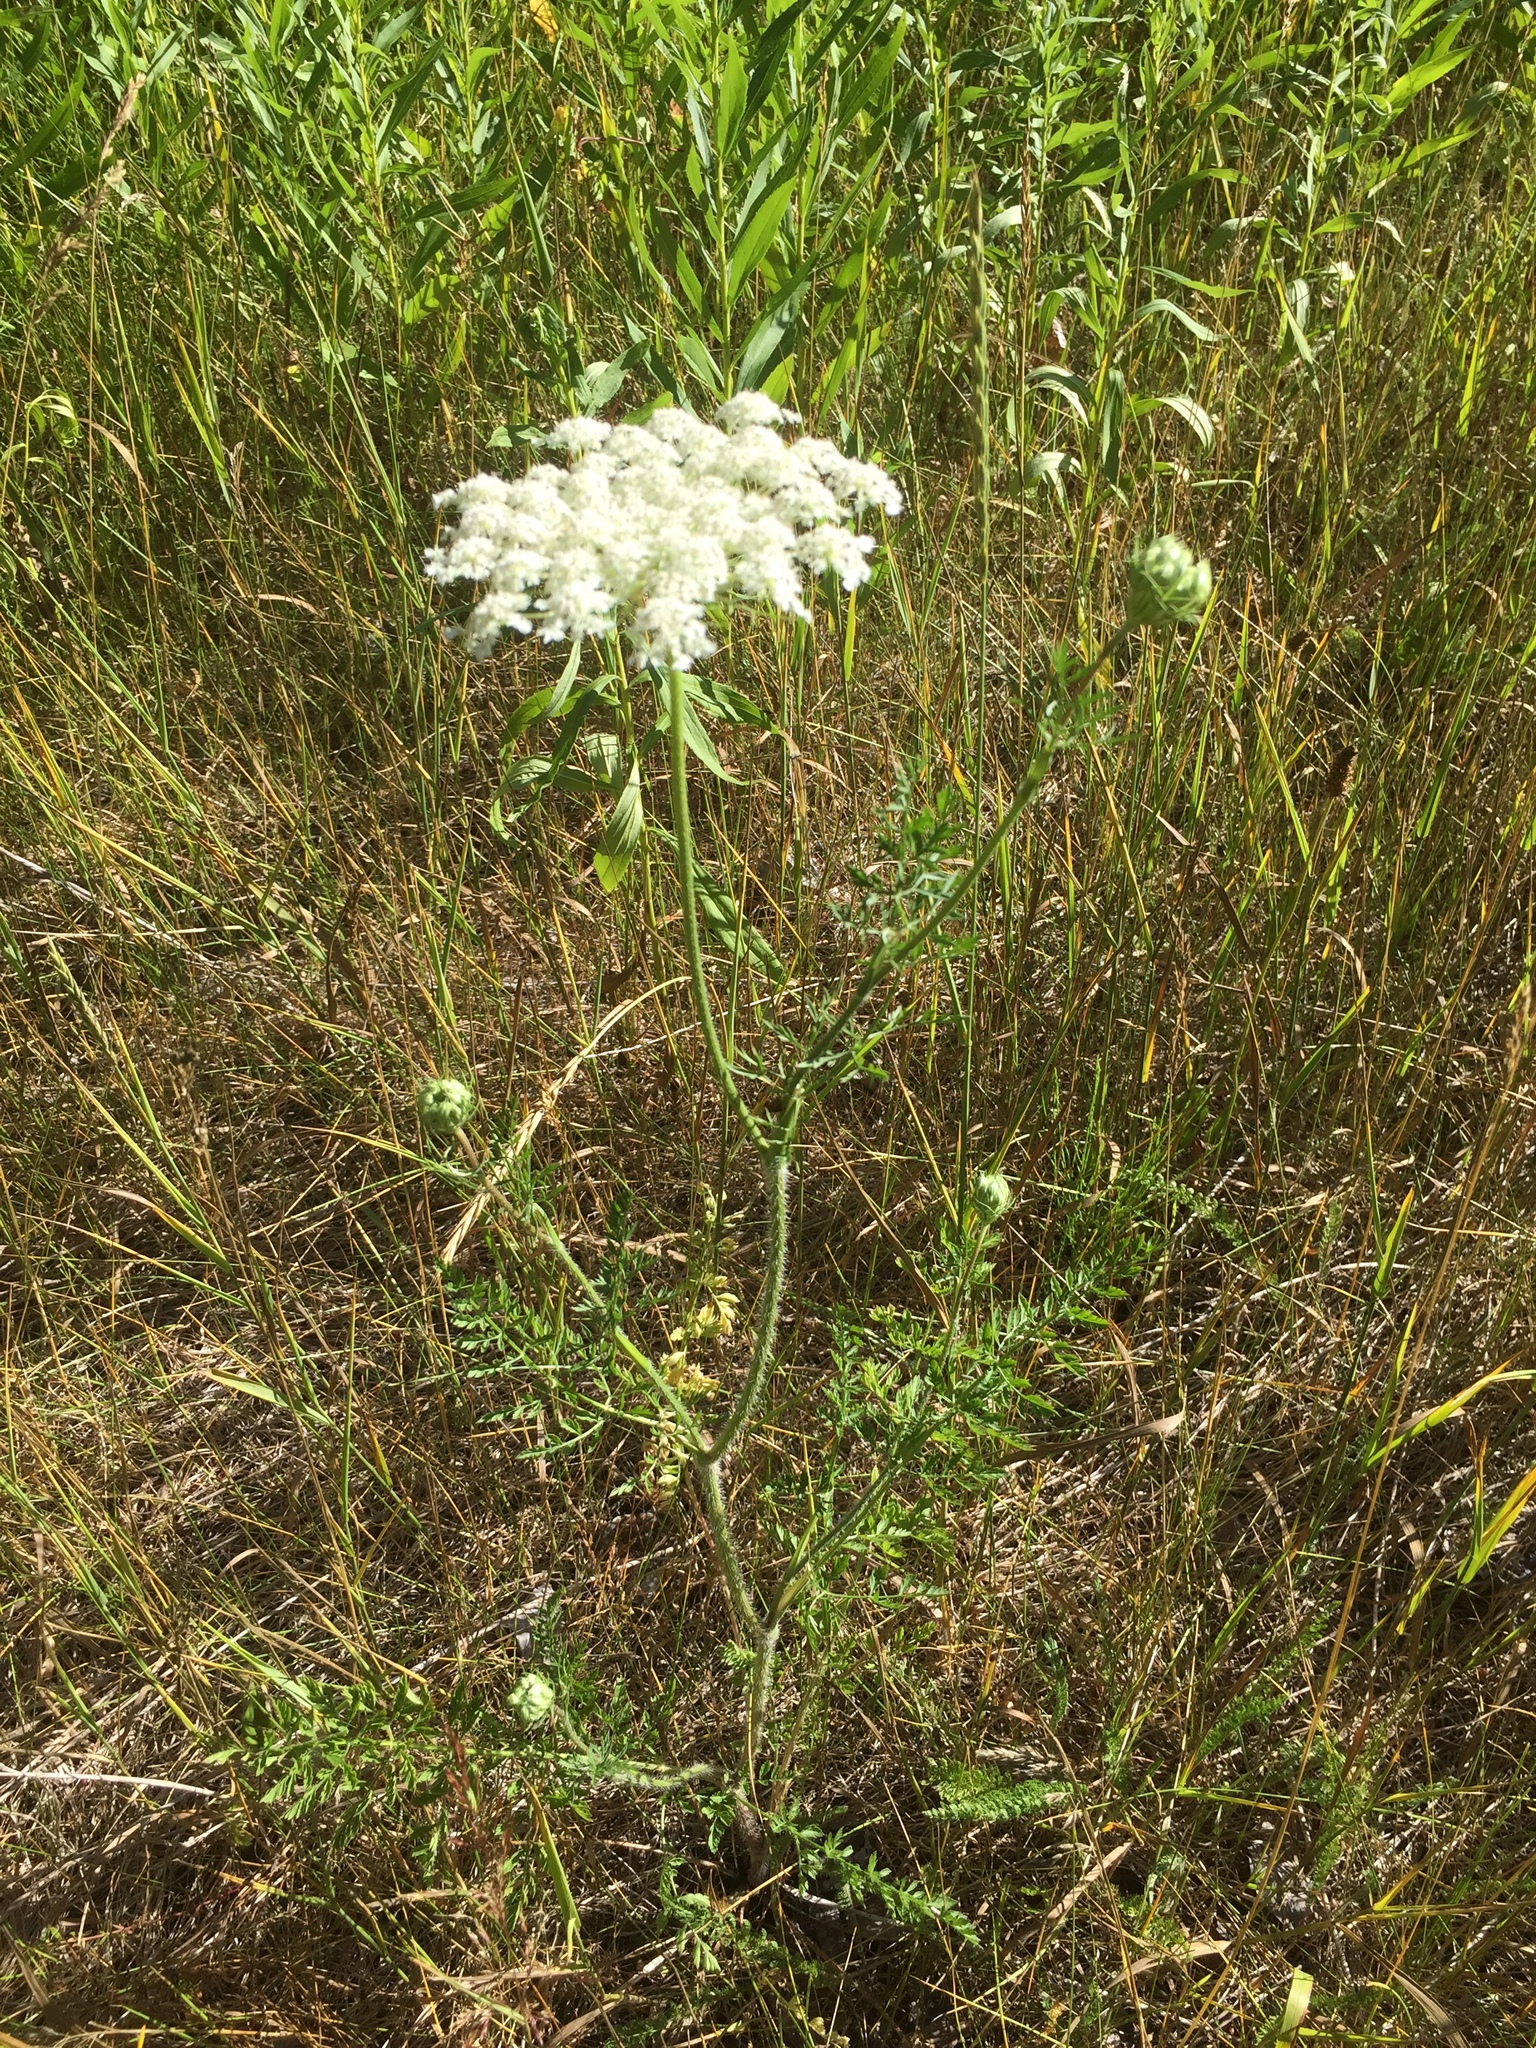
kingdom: Plantae
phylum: Tracheophyta
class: Magnoliopsida
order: Apiales
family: Apiaceae
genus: Daucus
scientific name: Daucus carota
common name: Wild carrot
